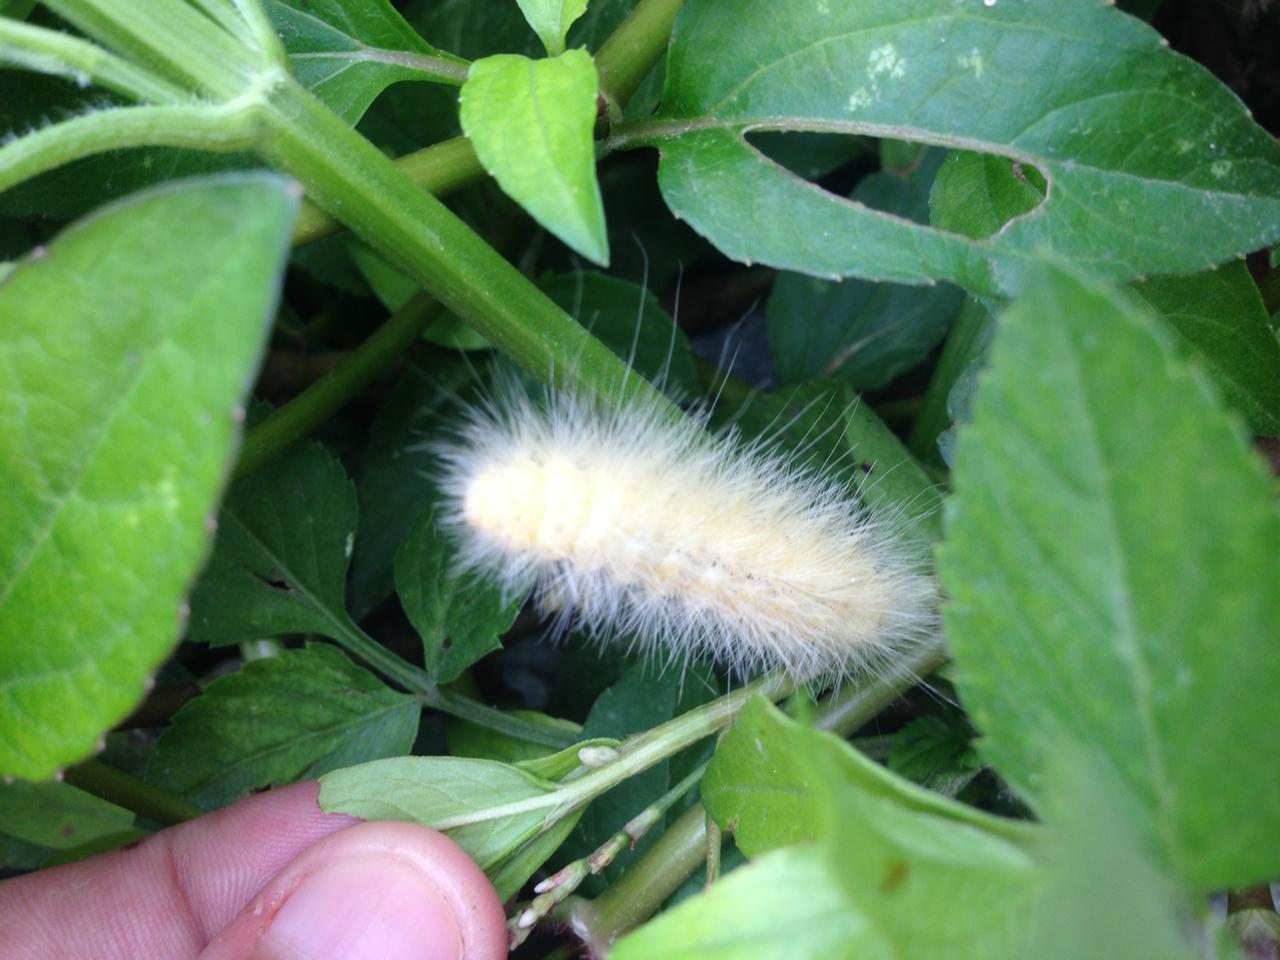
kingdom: Animalia
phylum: Arthropoda
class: Insecta
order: Lepidoptera
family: Erebidae
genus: Spilosoma
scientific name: Spilosoma virginica
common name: Virginia tiger moth
